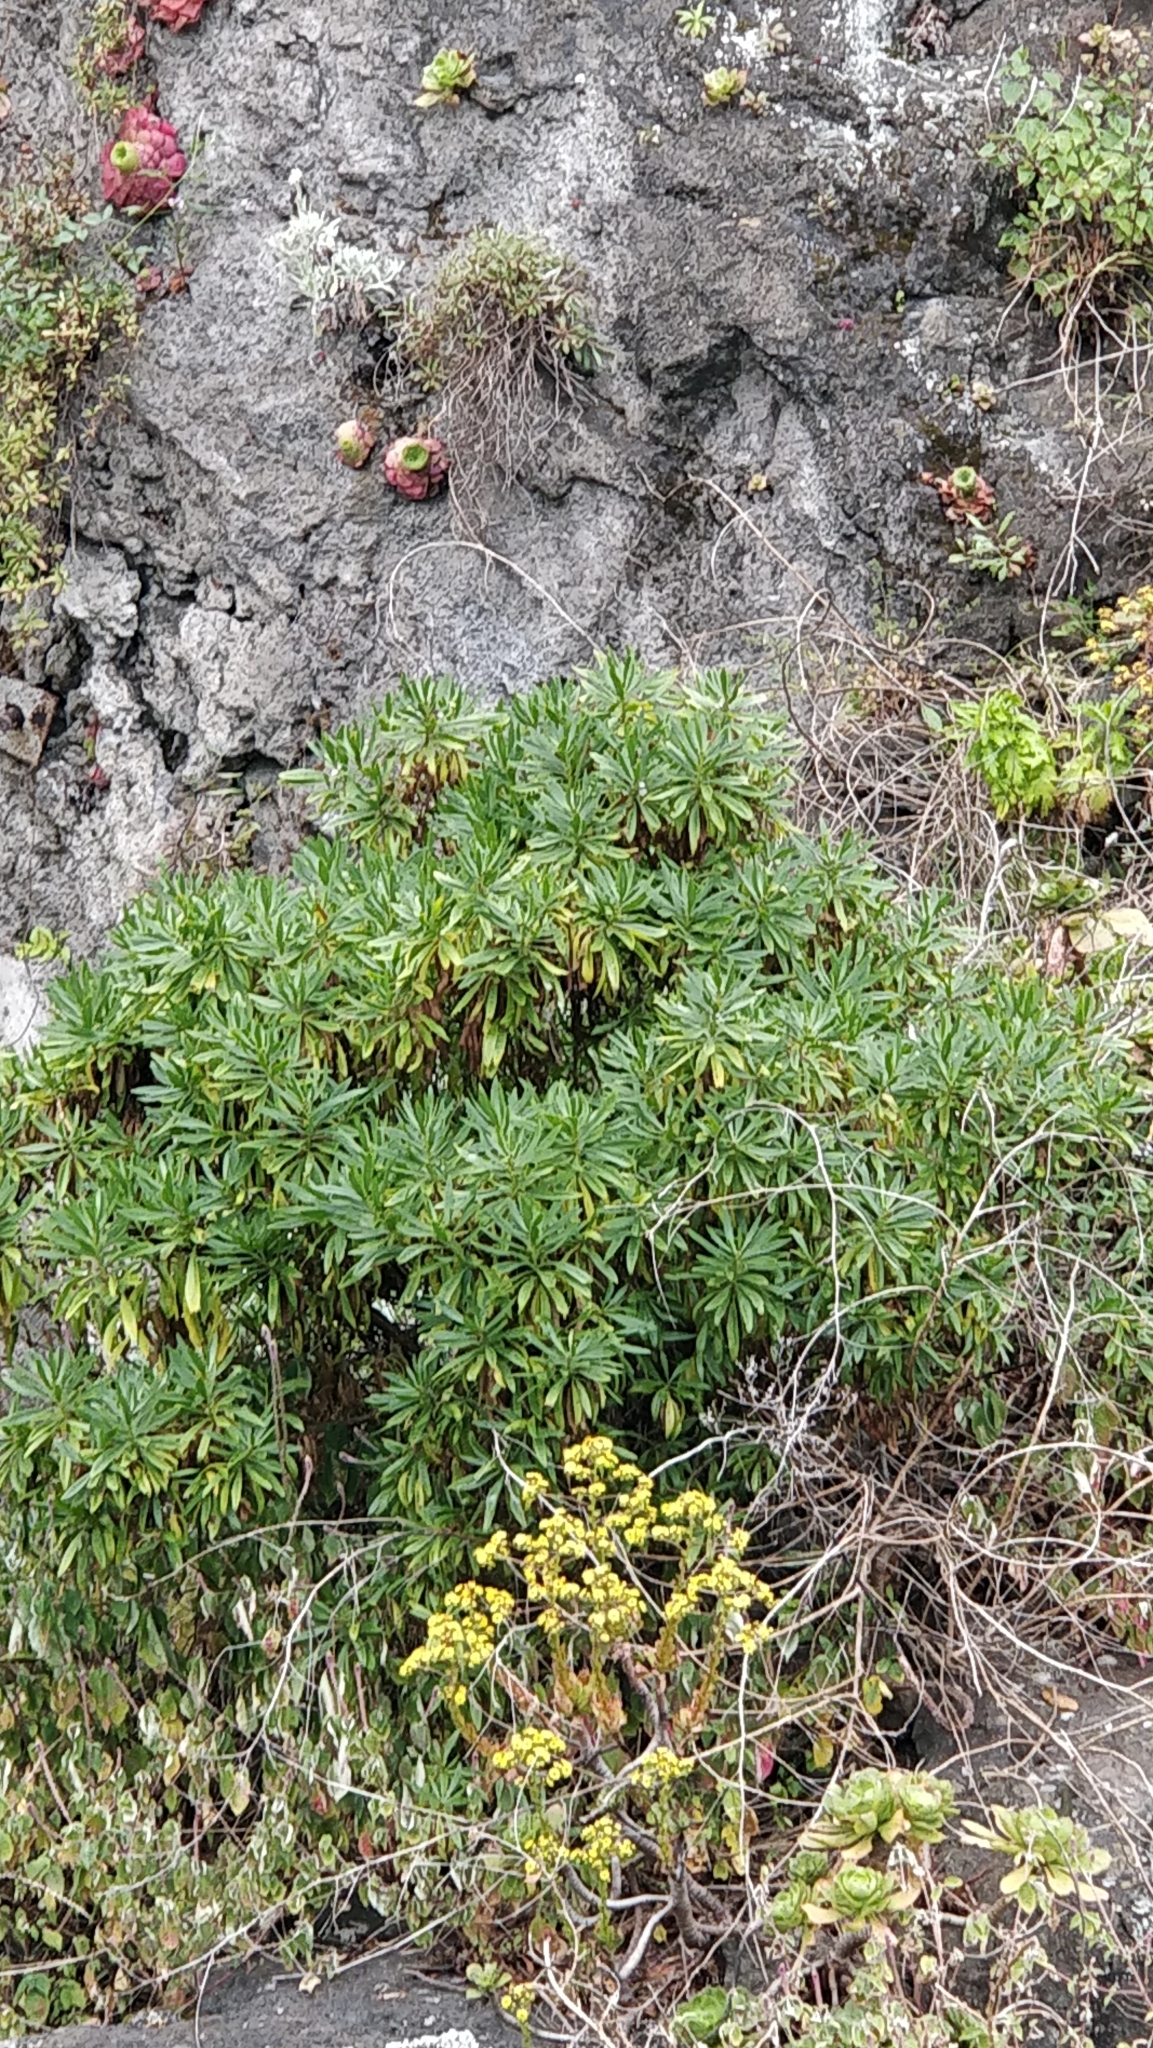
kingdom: Plantae
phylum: Tracheophyta
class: Magnoliopsida
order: Lamiales
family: Plantaginaceae
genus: Globularia
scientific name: Globularia salicina
